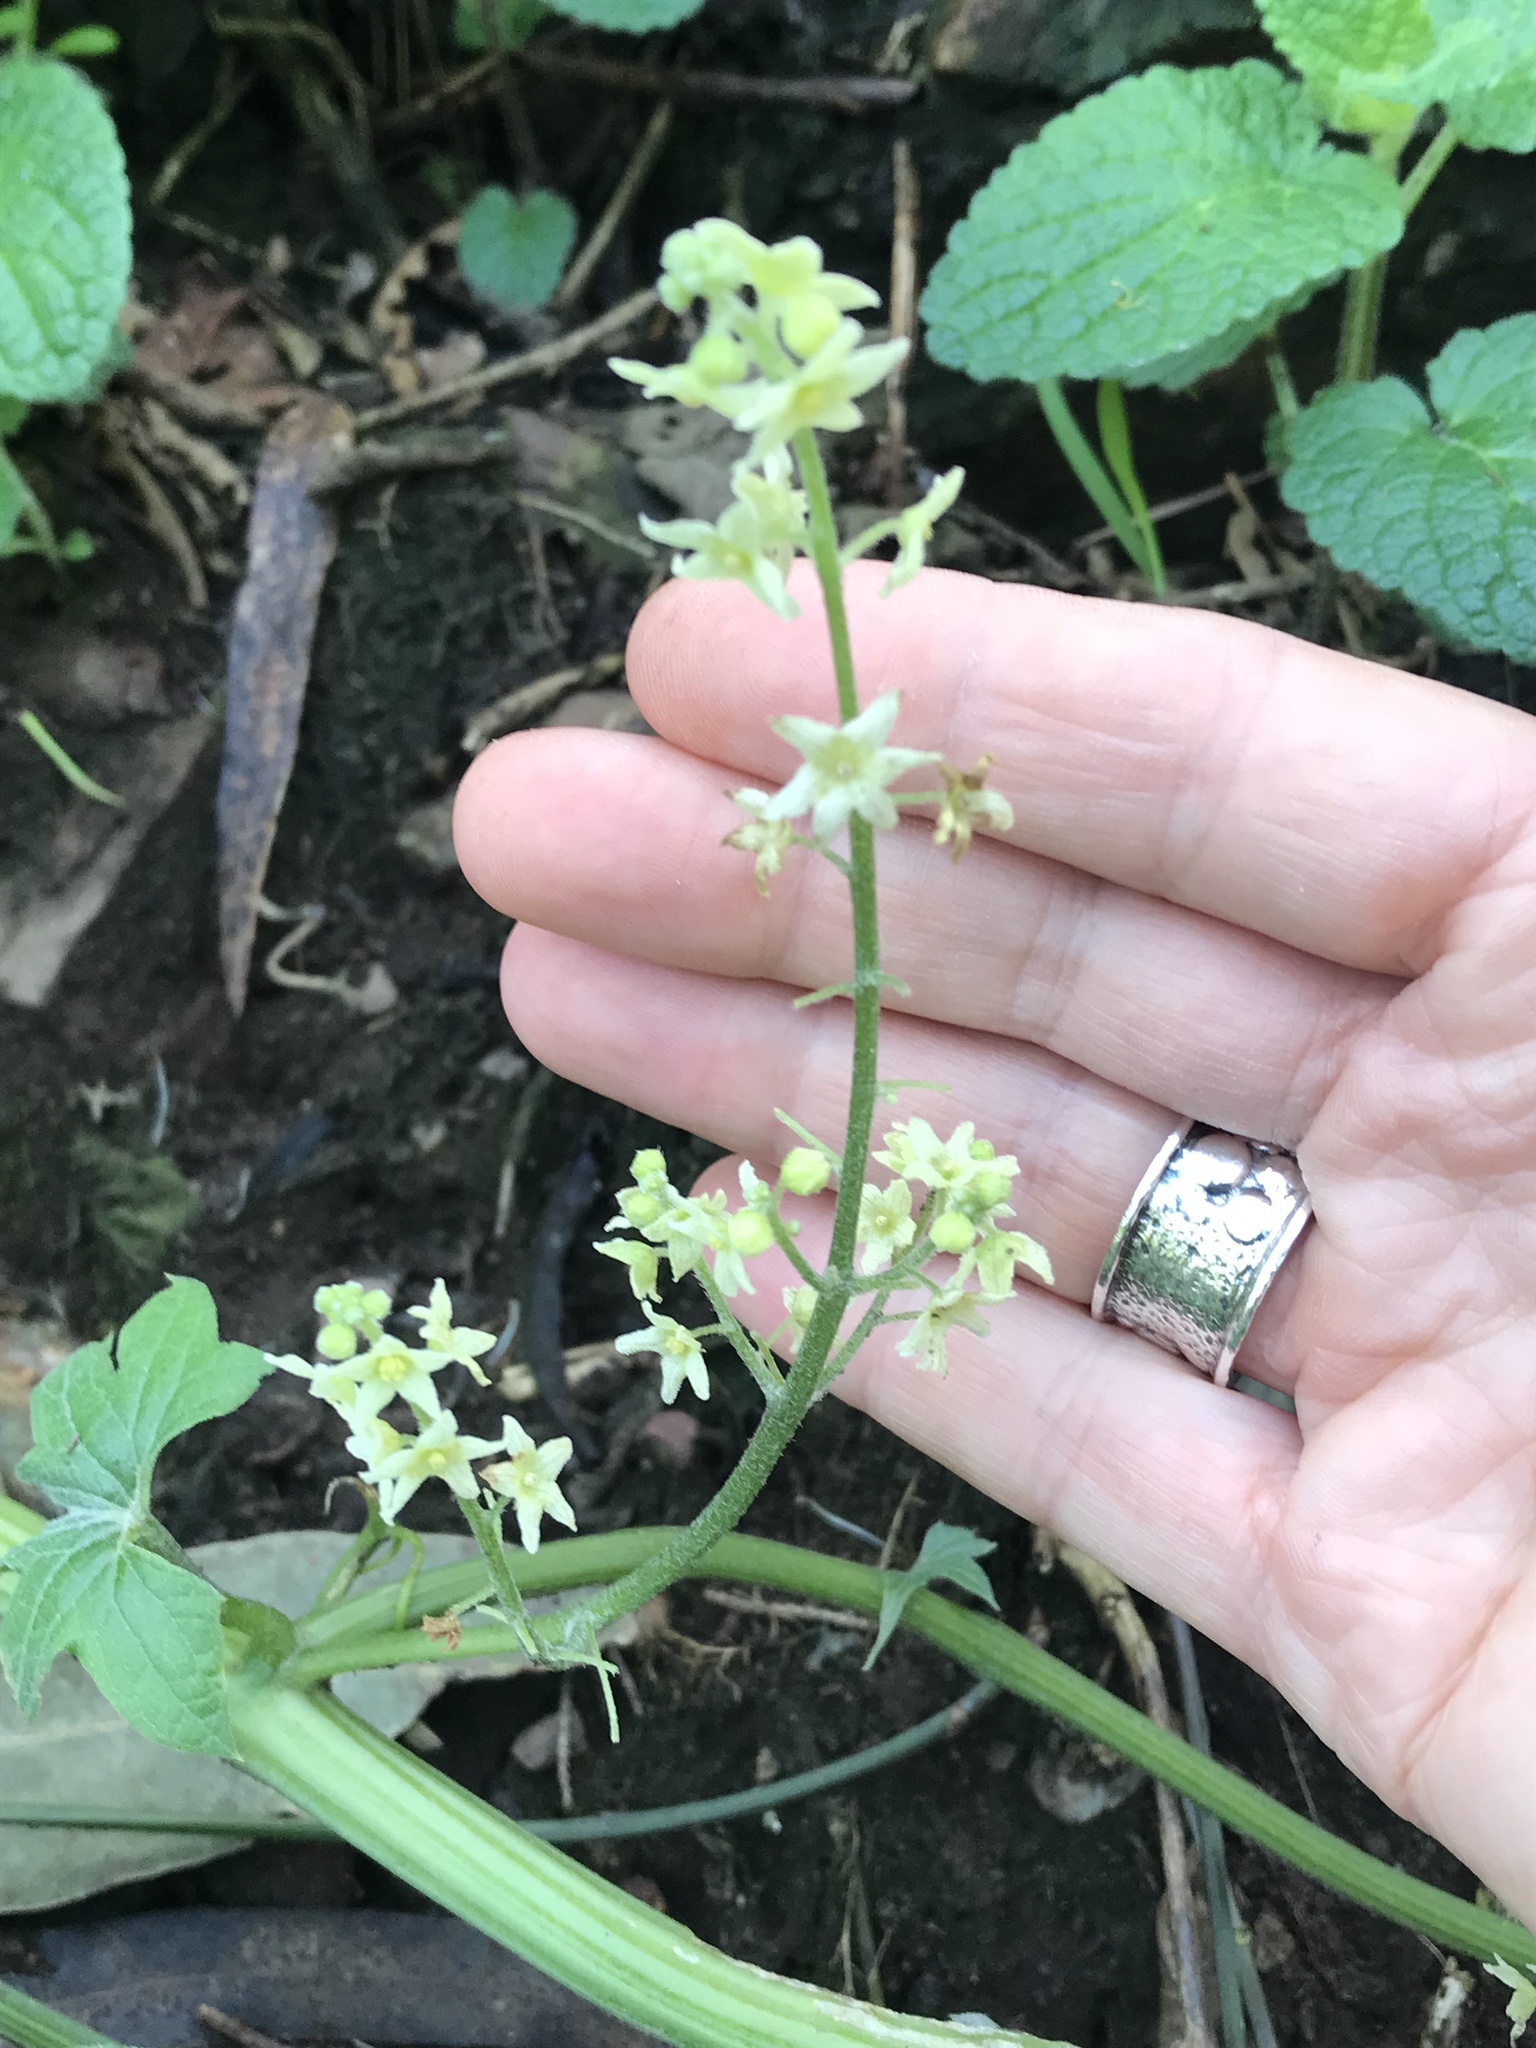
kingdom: Plantae
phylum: Tracheophyta
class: Magnoliopsida
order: Cucurbitales
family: Cucurbitaceae
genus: Marah
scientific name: Marah fabacea
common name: California manroot
